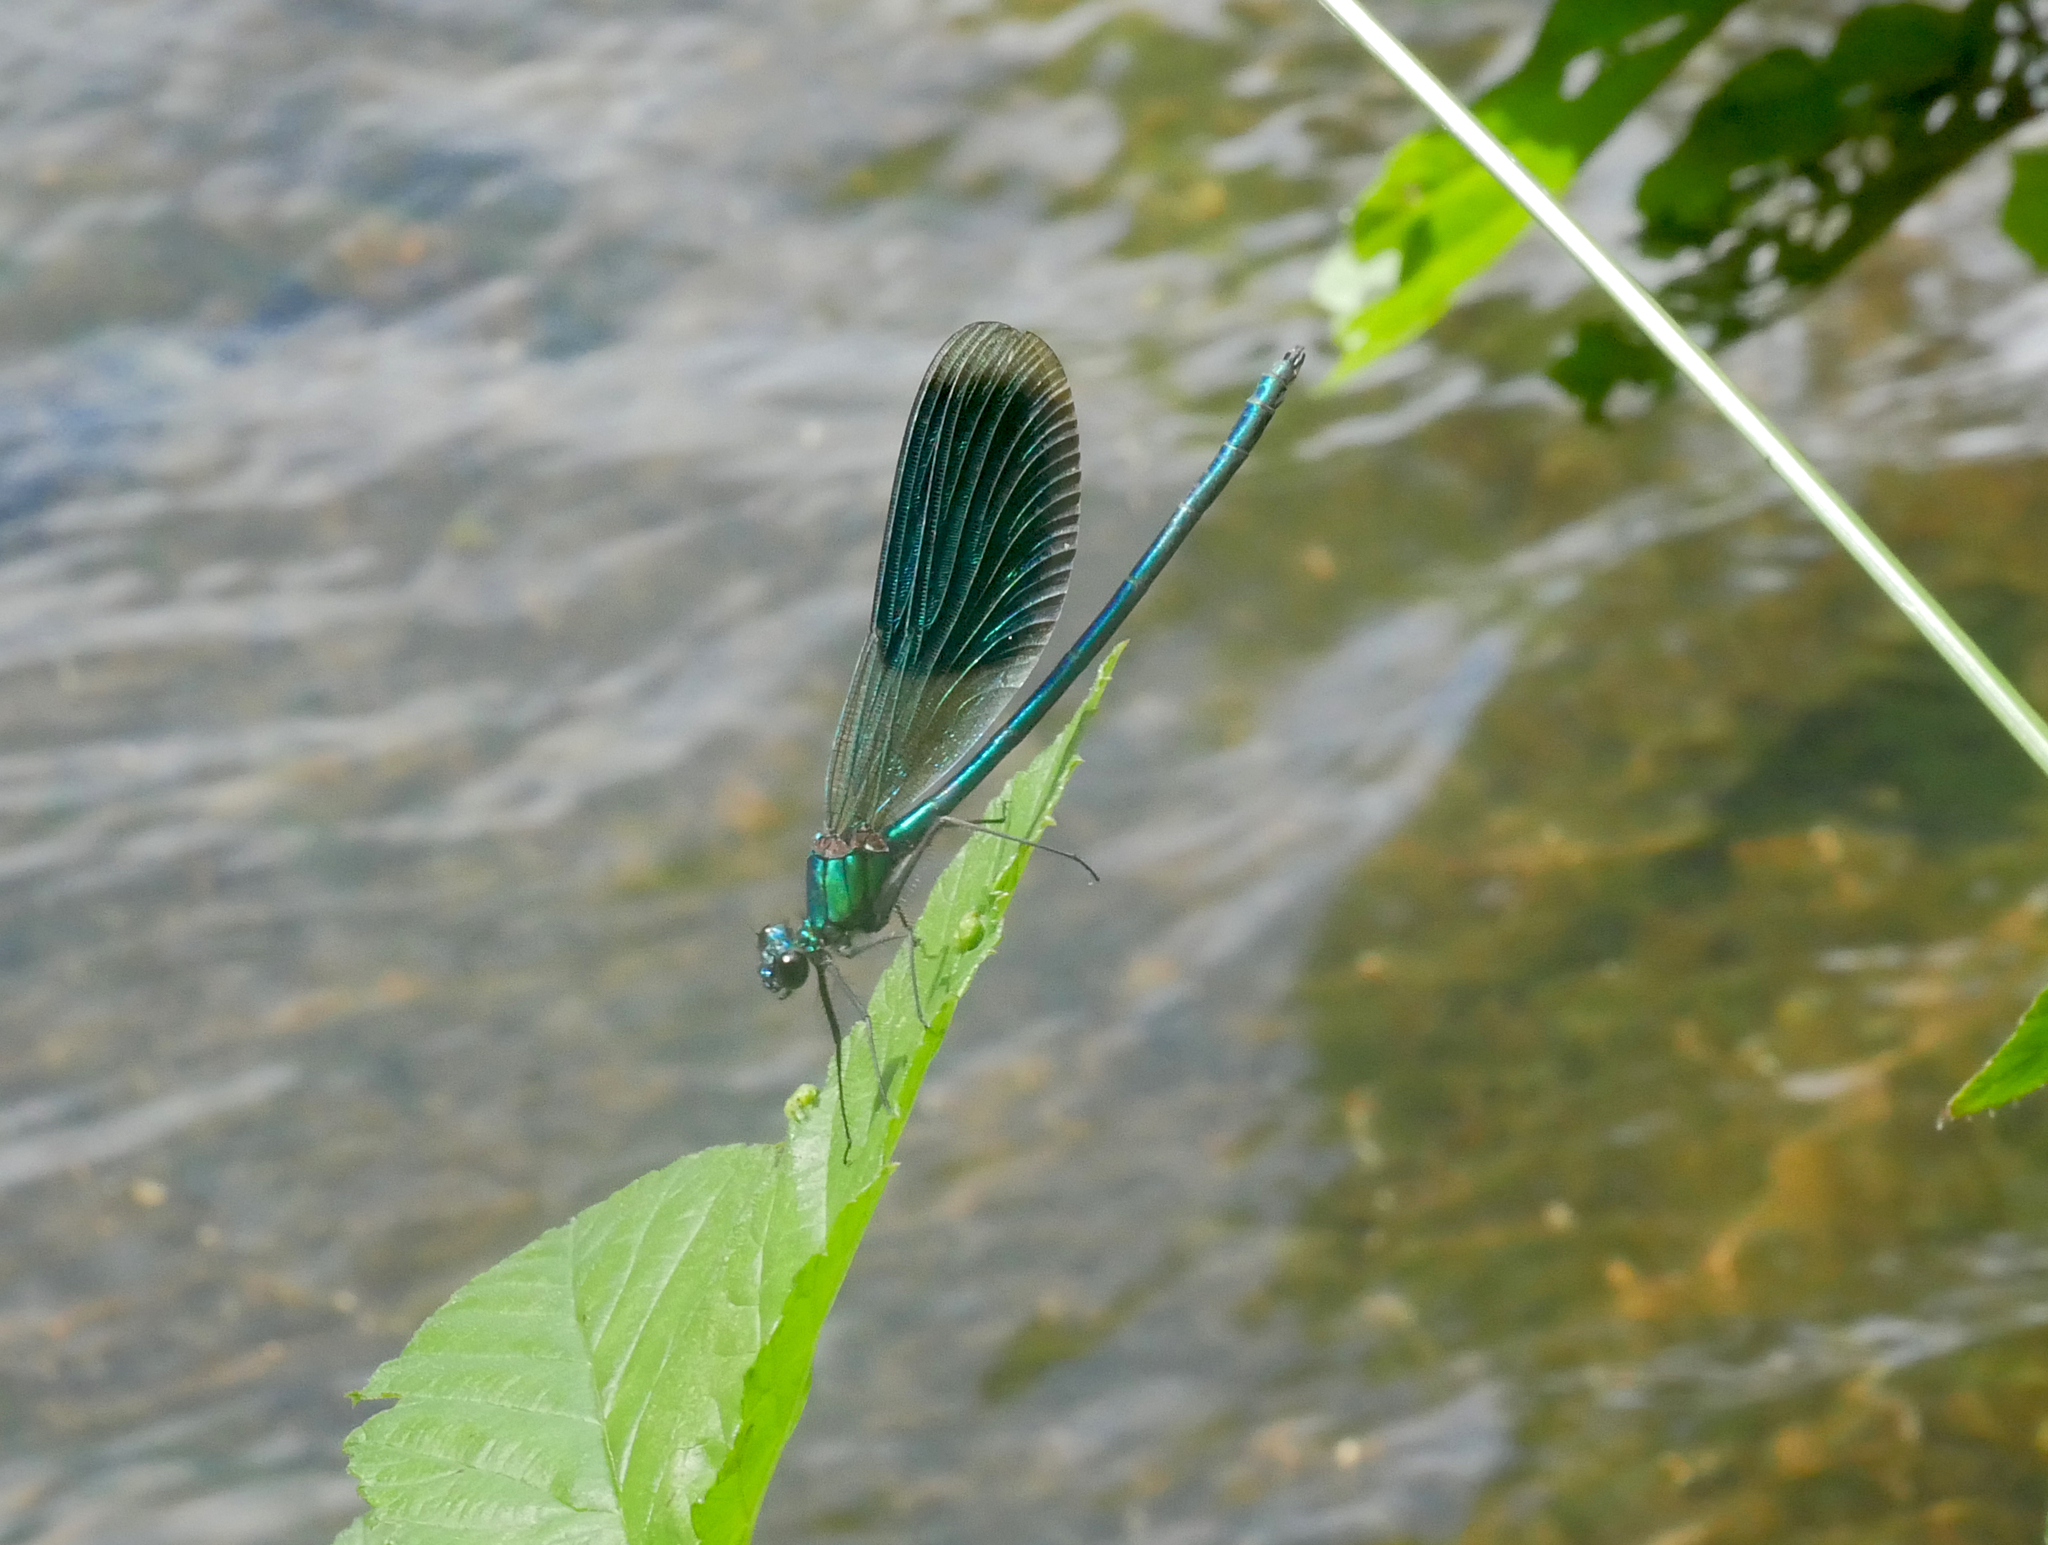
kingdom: Animalia
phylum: Arthropoda
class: Insecta
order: Odonata
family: Calopterygidae
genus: Calopteryx
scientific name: Calopteryx splendens
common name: Banded demoiselle
